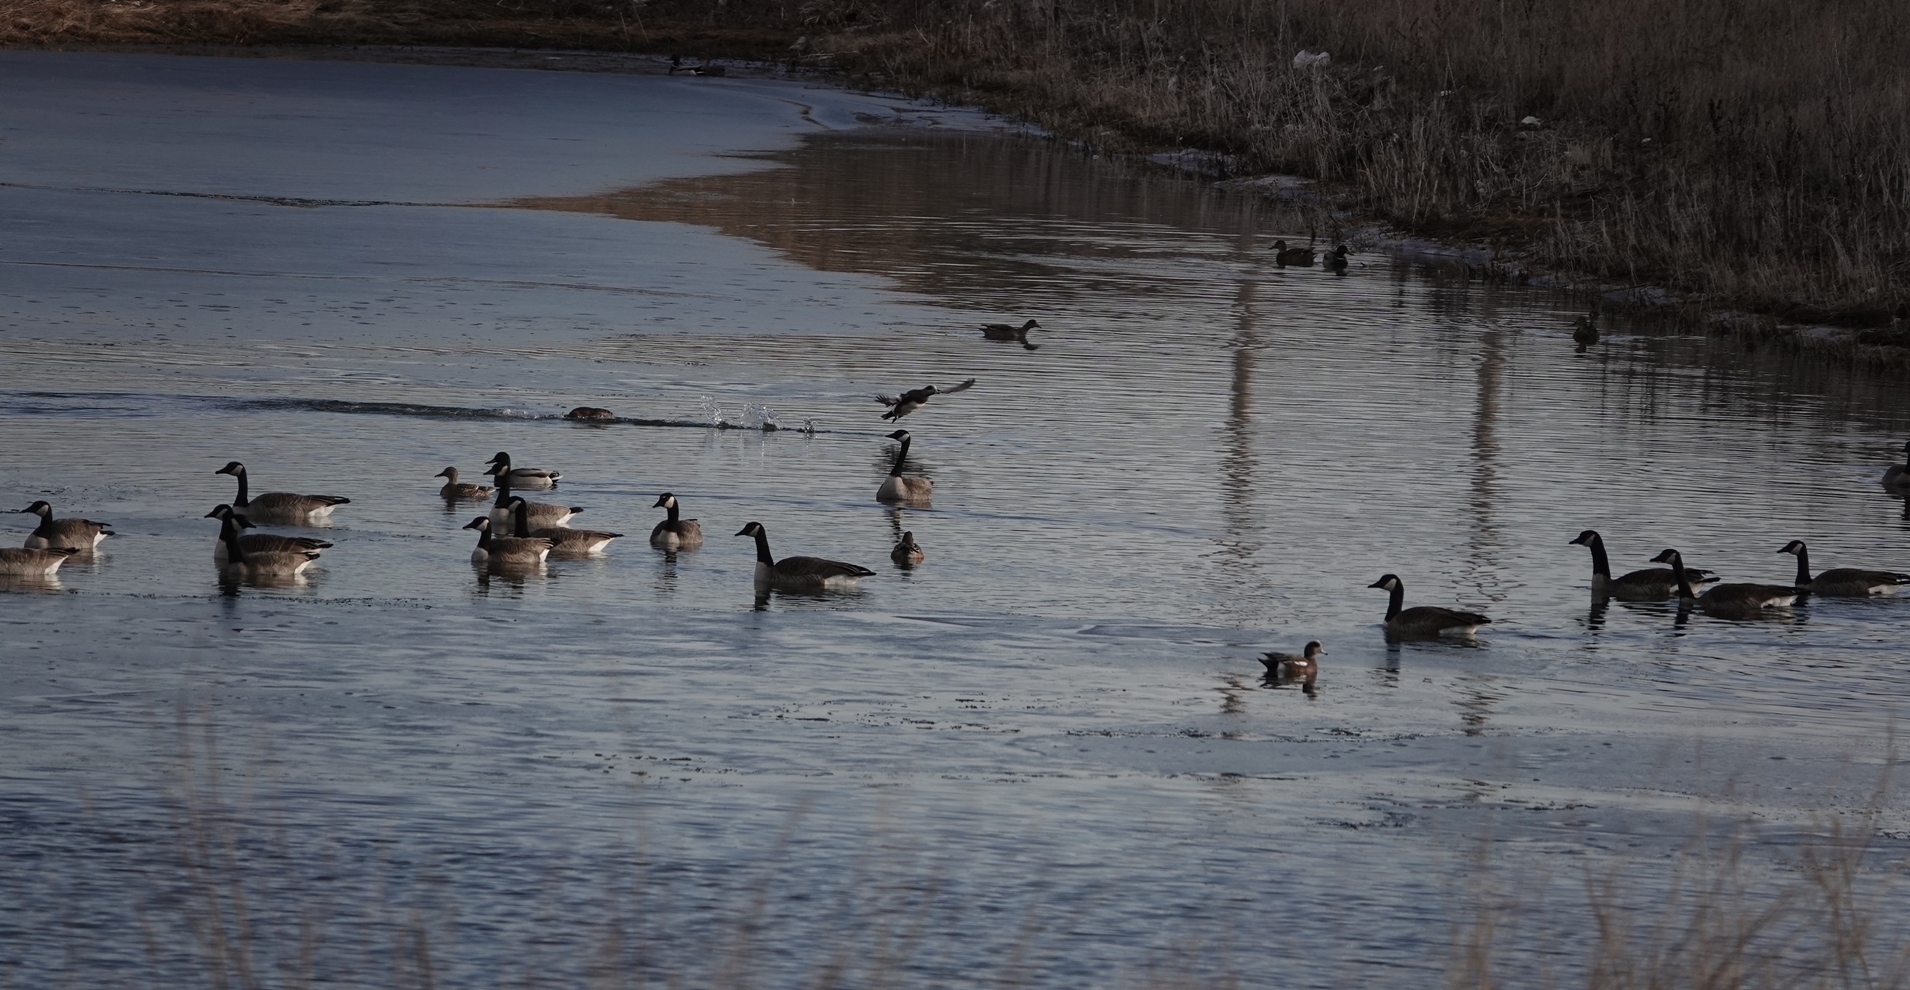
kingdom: Animalia
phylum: Chordata
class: Aves
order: Anseriformes
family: Anatidae
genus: Branta
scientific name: Branta canadensis
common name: Canada goose
